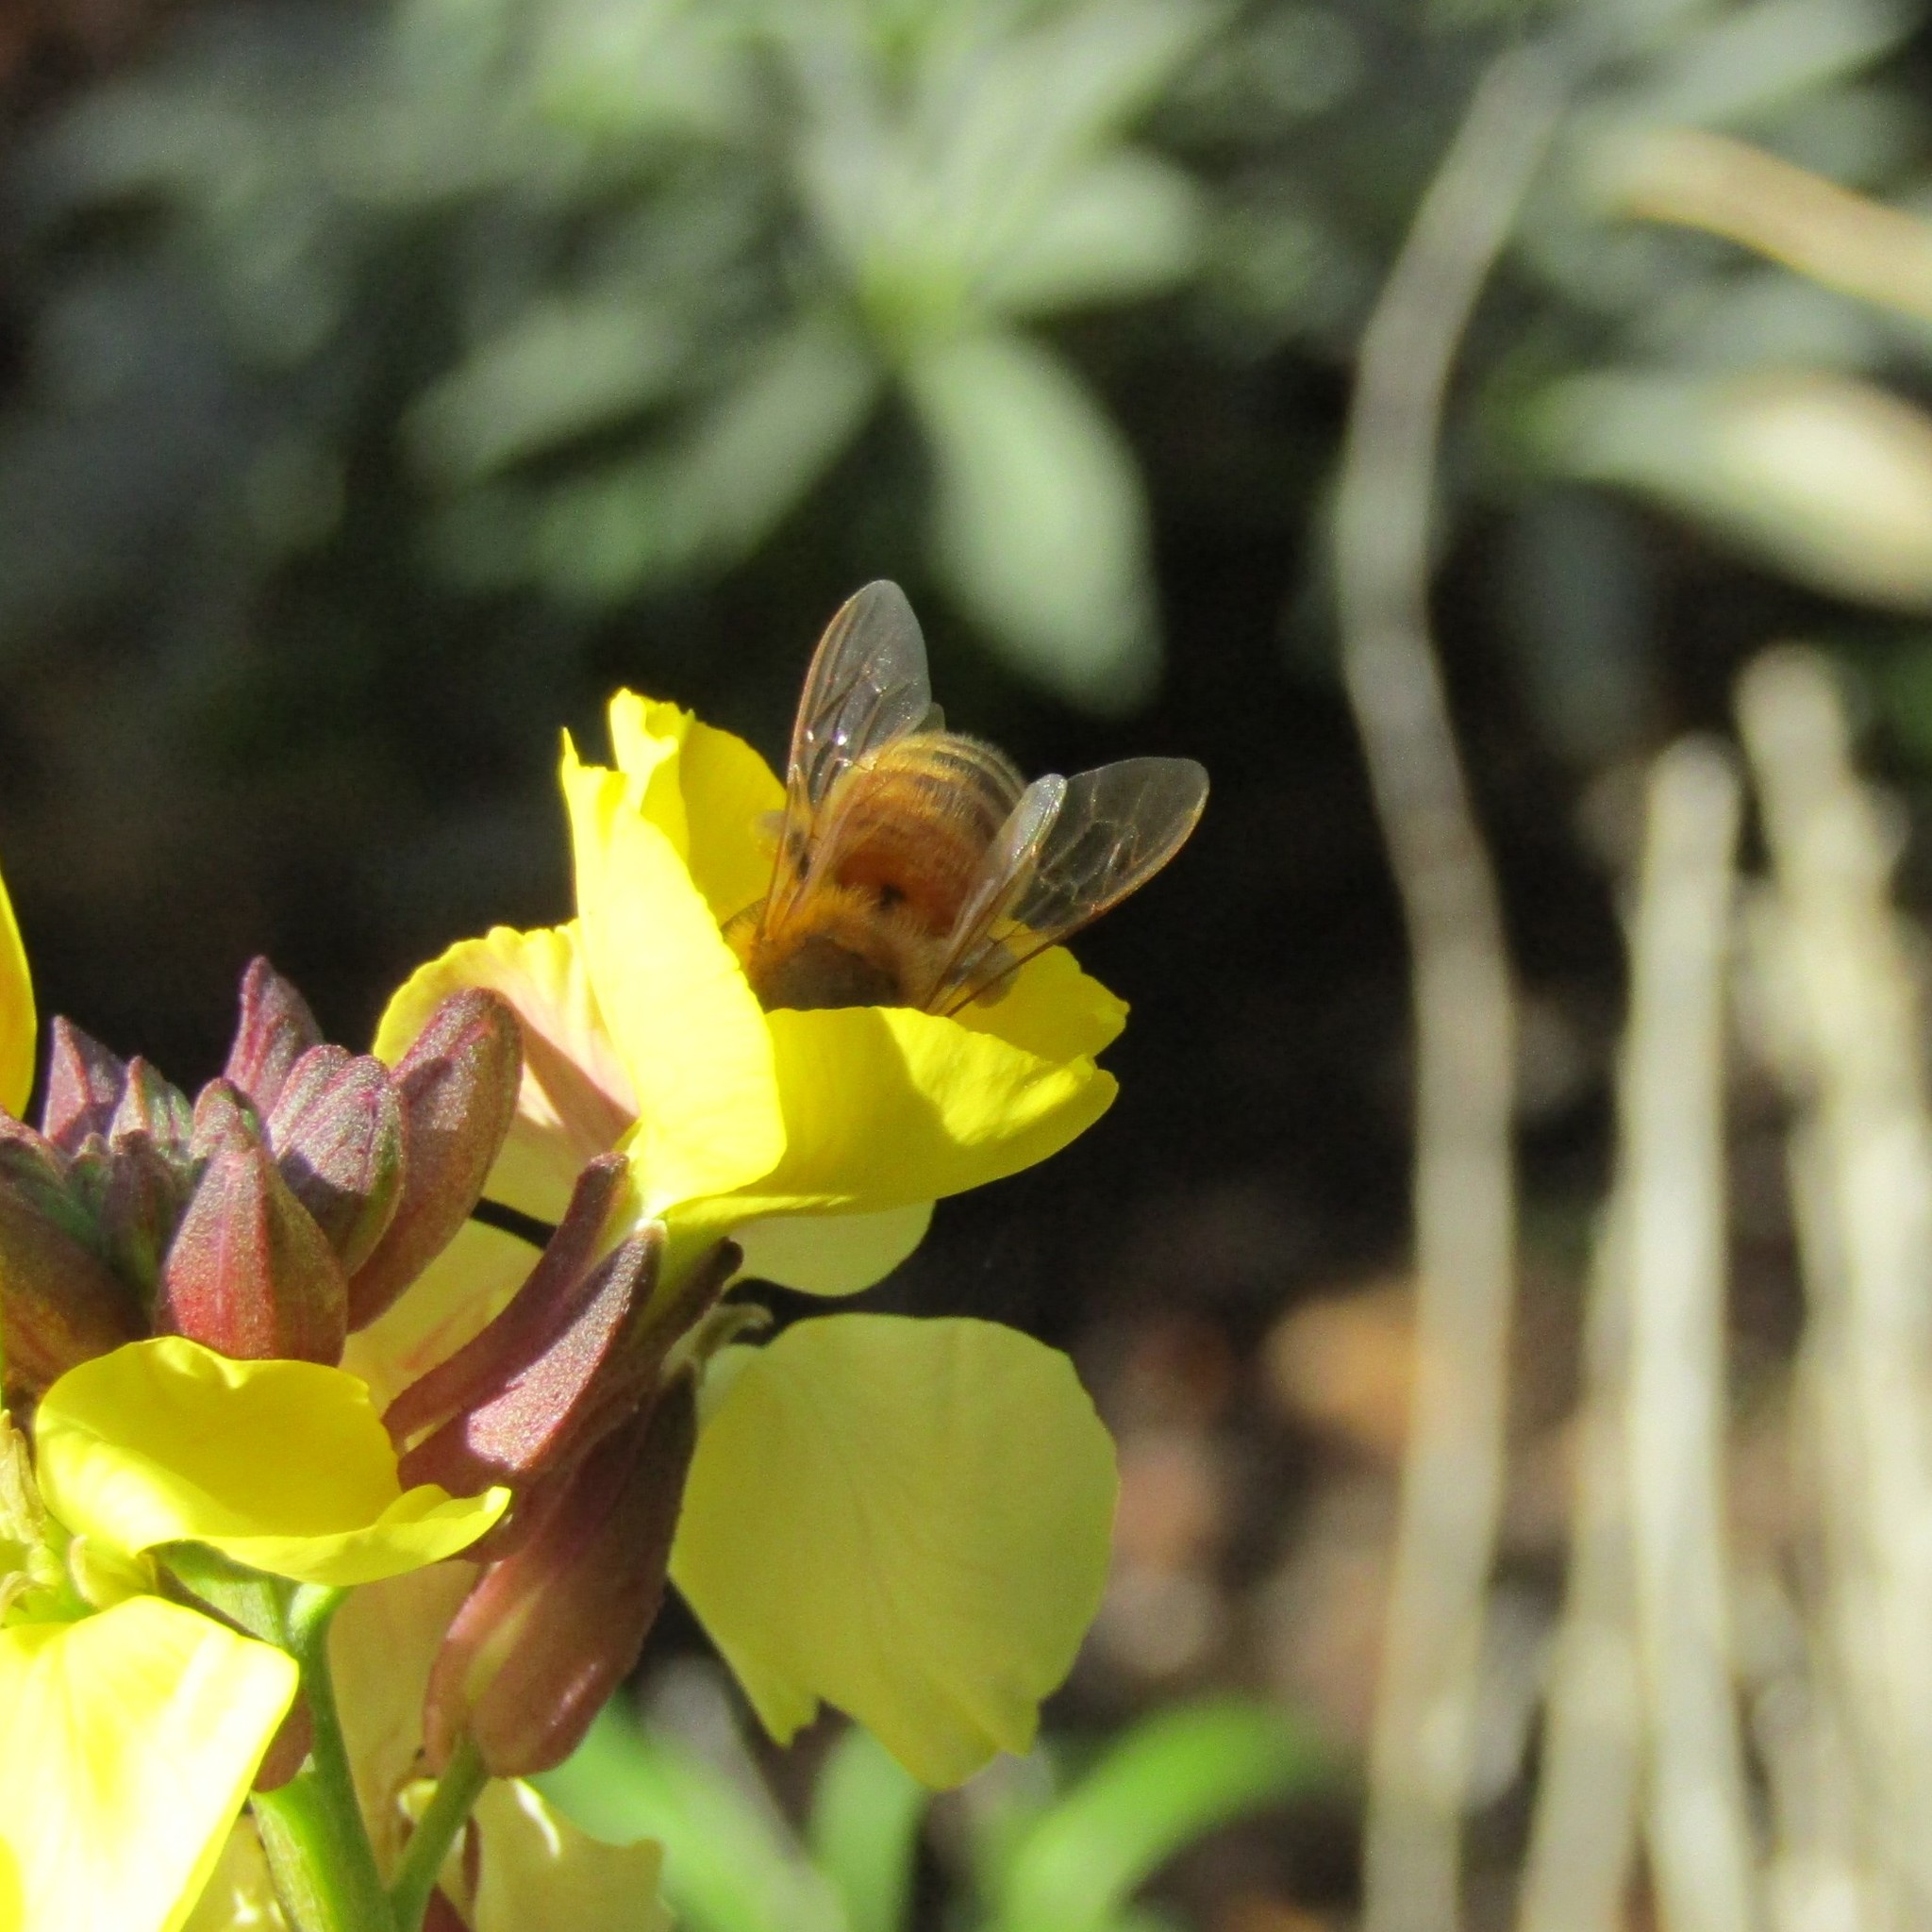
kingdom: Animalia
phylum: Arthropoda
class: Insecta
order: Hymenoptera
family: Apidae
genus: Apis
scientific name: Apis mellifera
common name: Honey bee
